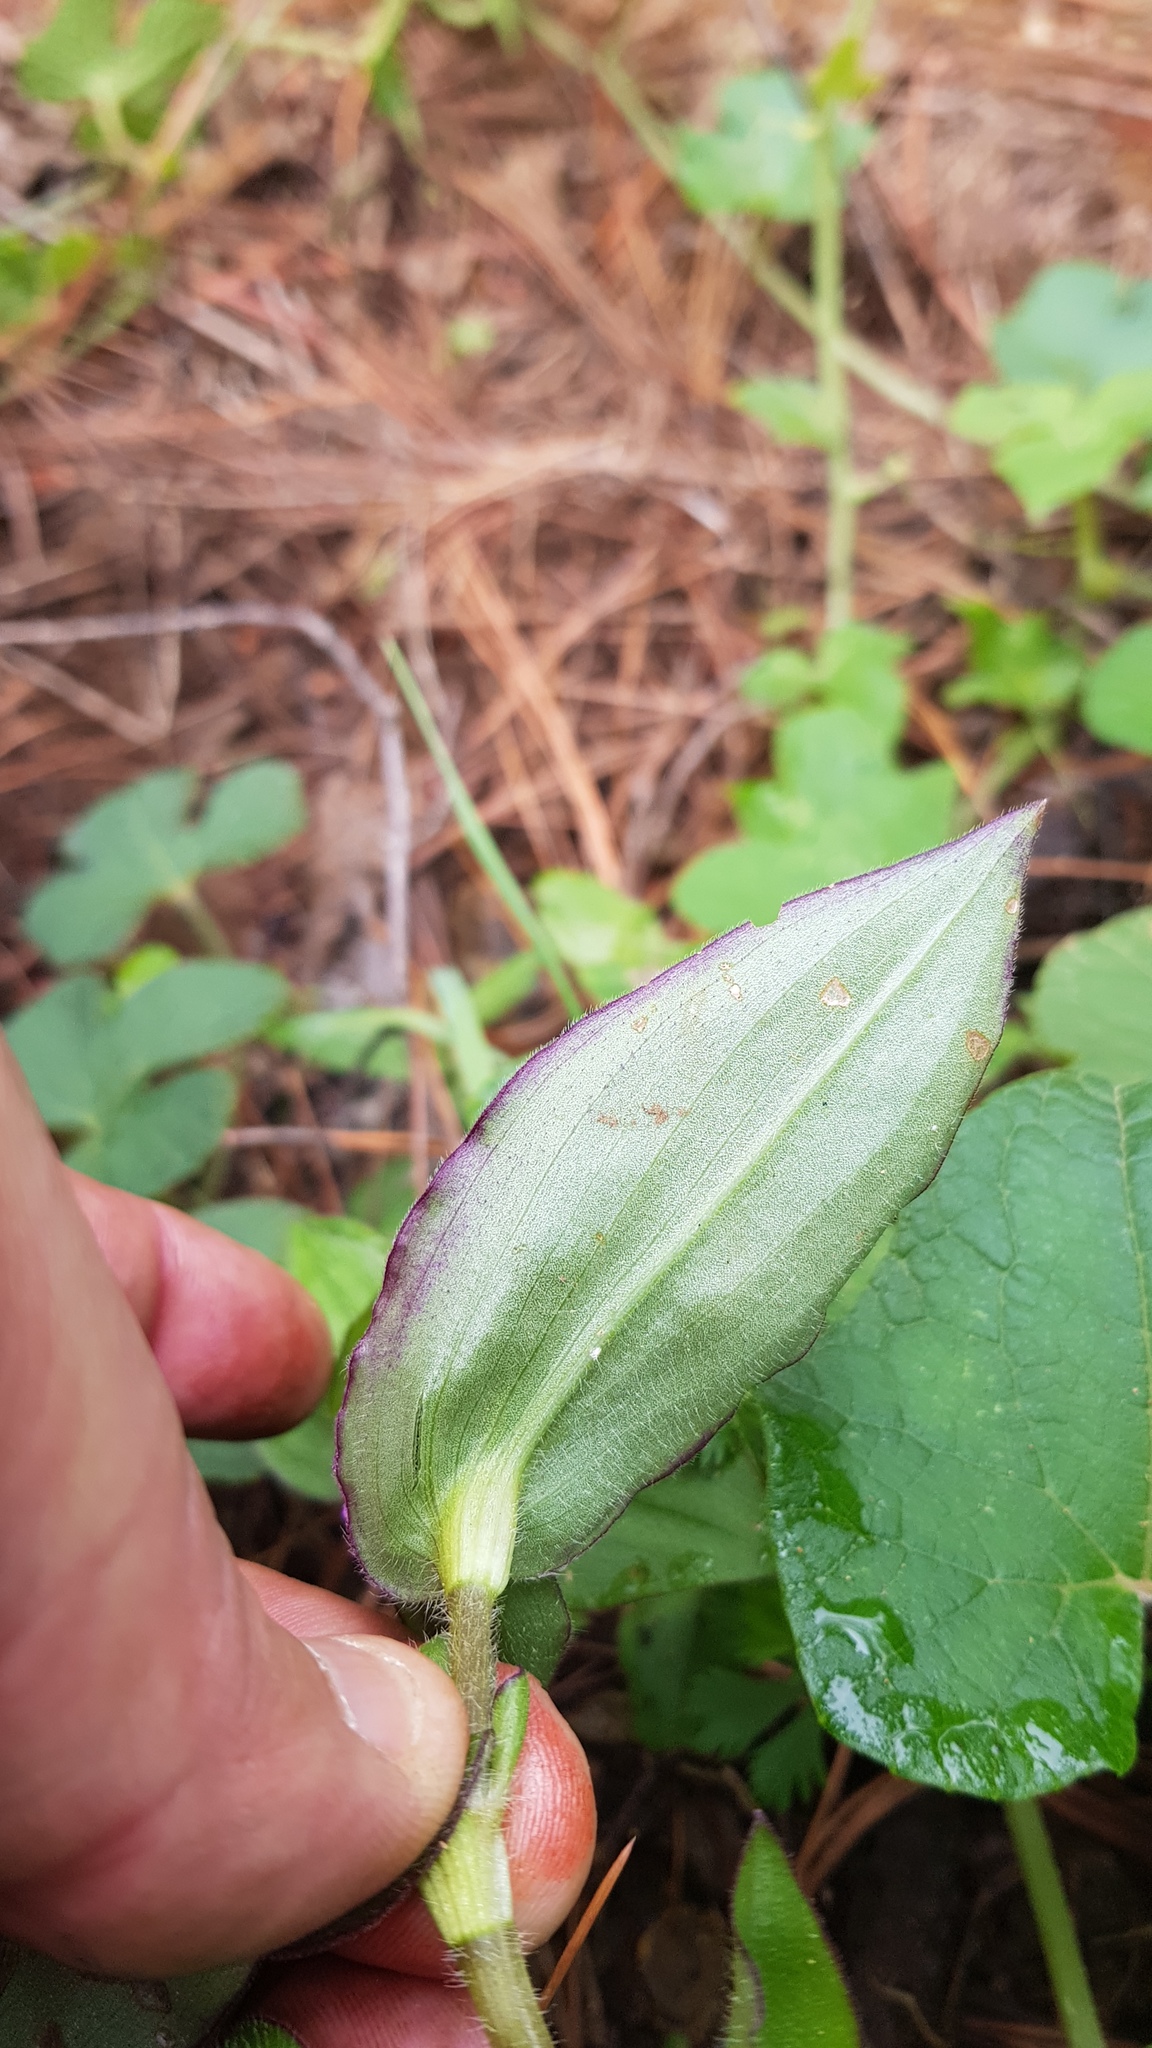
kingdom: Plantae
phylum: Tracheophyta
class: Liliopsida
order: Commelinales
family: Commelinaceae
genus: Tradescantia
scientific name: Tradescantia commelinoides
